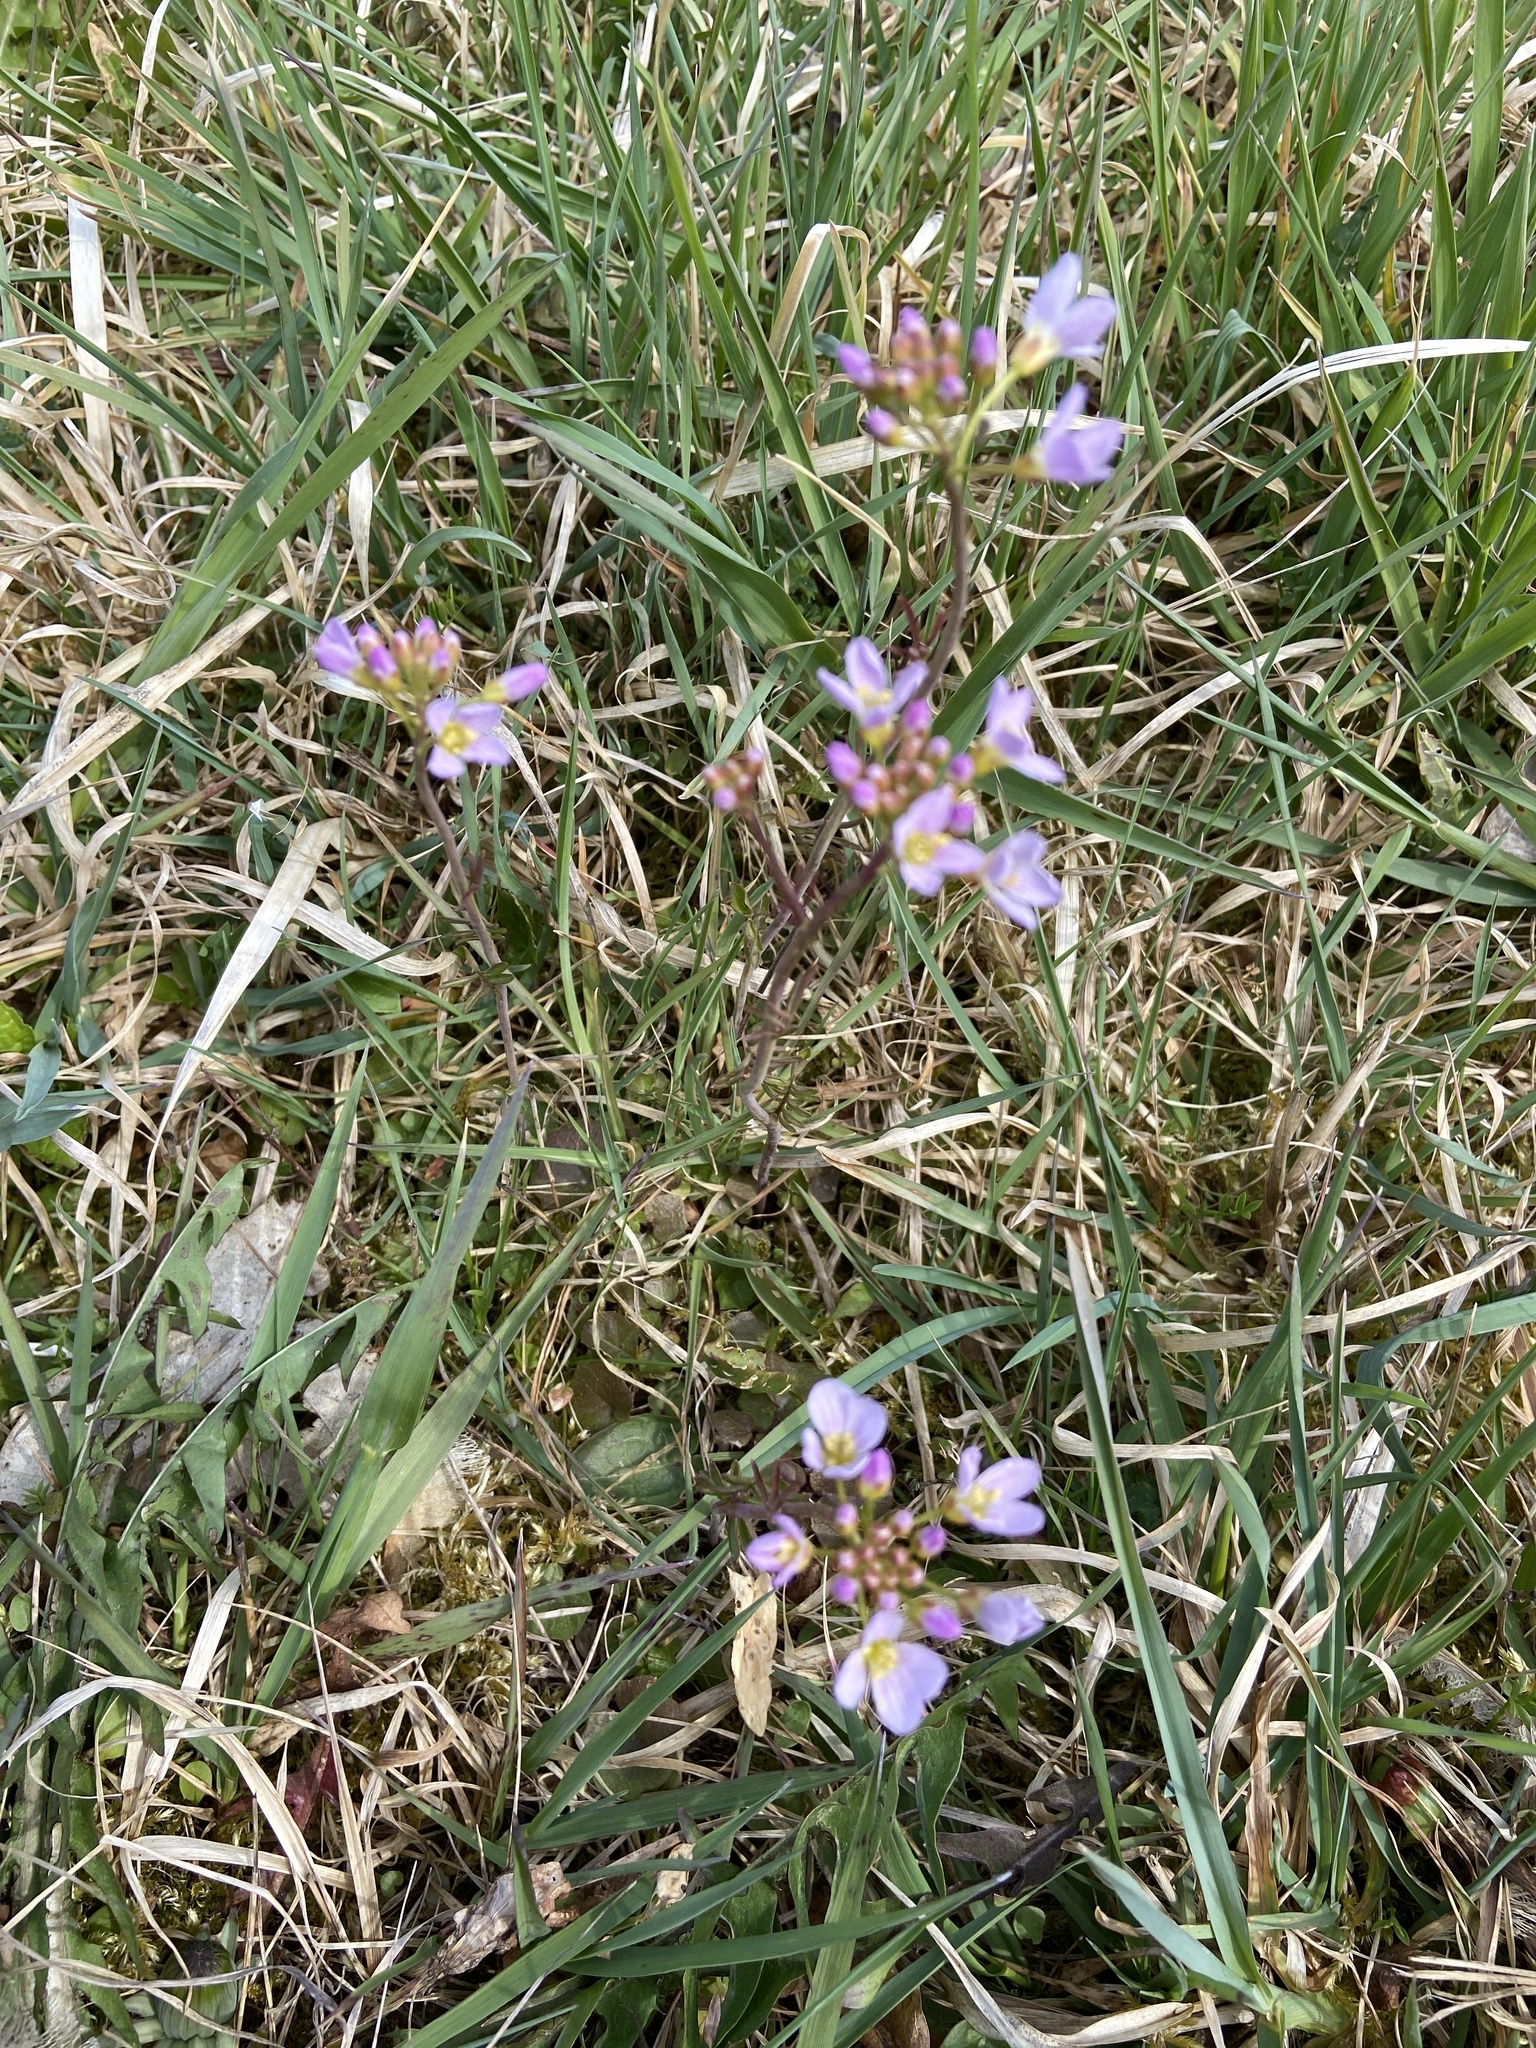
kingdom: Plantae
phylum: Tracheophyta
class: Magnoliopsida
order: Brassicales
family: Brassicaceae
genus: Cardamine
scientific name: Cardamine pratensis
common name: Cuckoo flower
